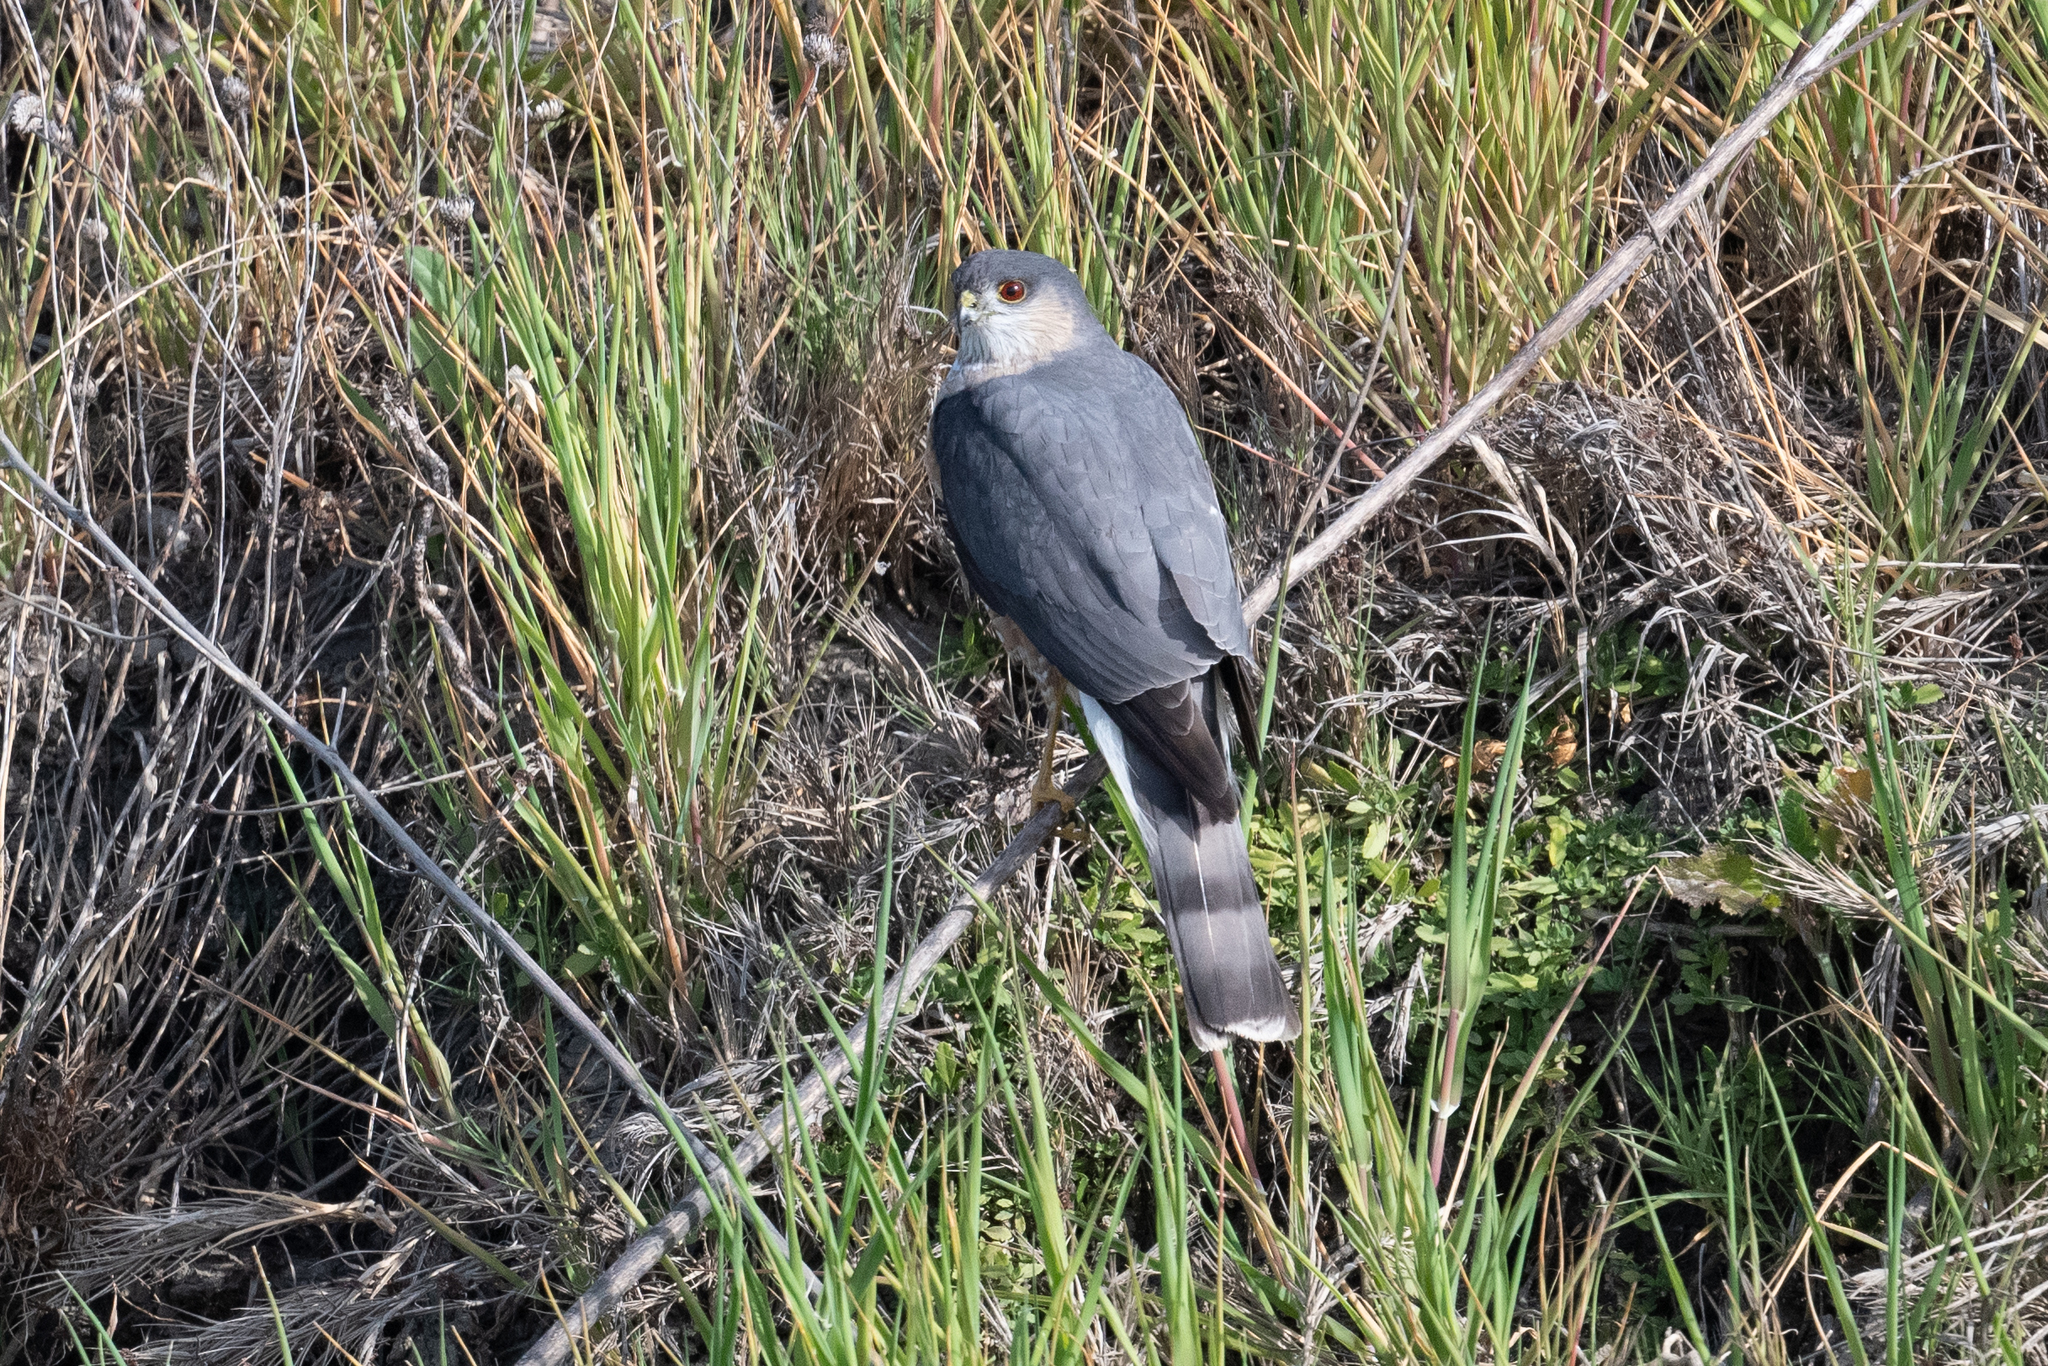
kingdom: Animalia
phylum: Chordata
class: Aves
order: Accipitriformes
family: Accipitridae
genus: Accipiter
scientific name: Accipiter striatus
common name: Sharp-shinned hawk
